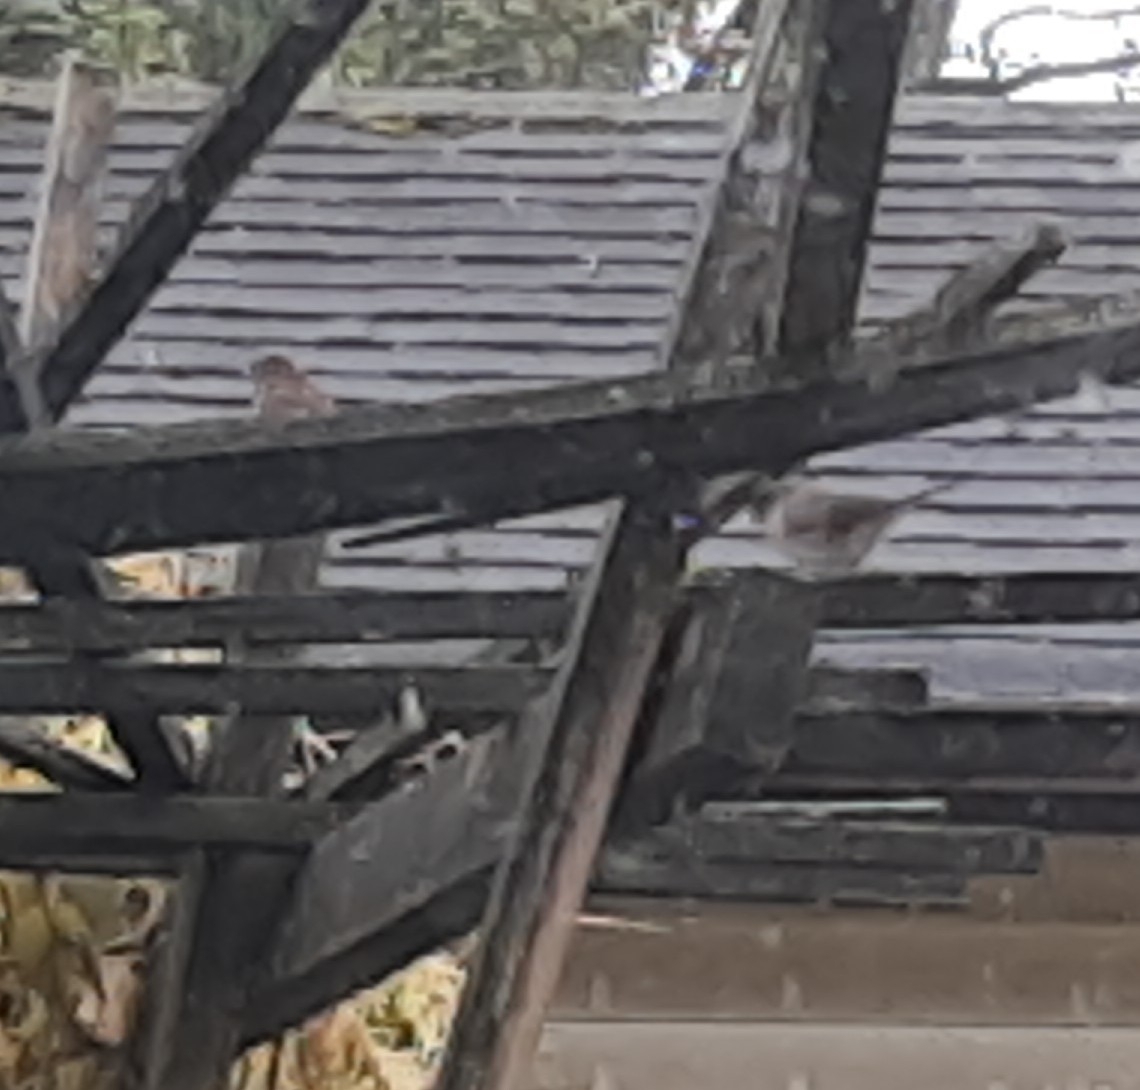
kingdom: Animalia
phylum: Chordata
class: Aves
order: Passeriformes
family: Passerellidae
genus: Junco
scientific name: Junco hyemalis
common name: Dark-eyed junco
